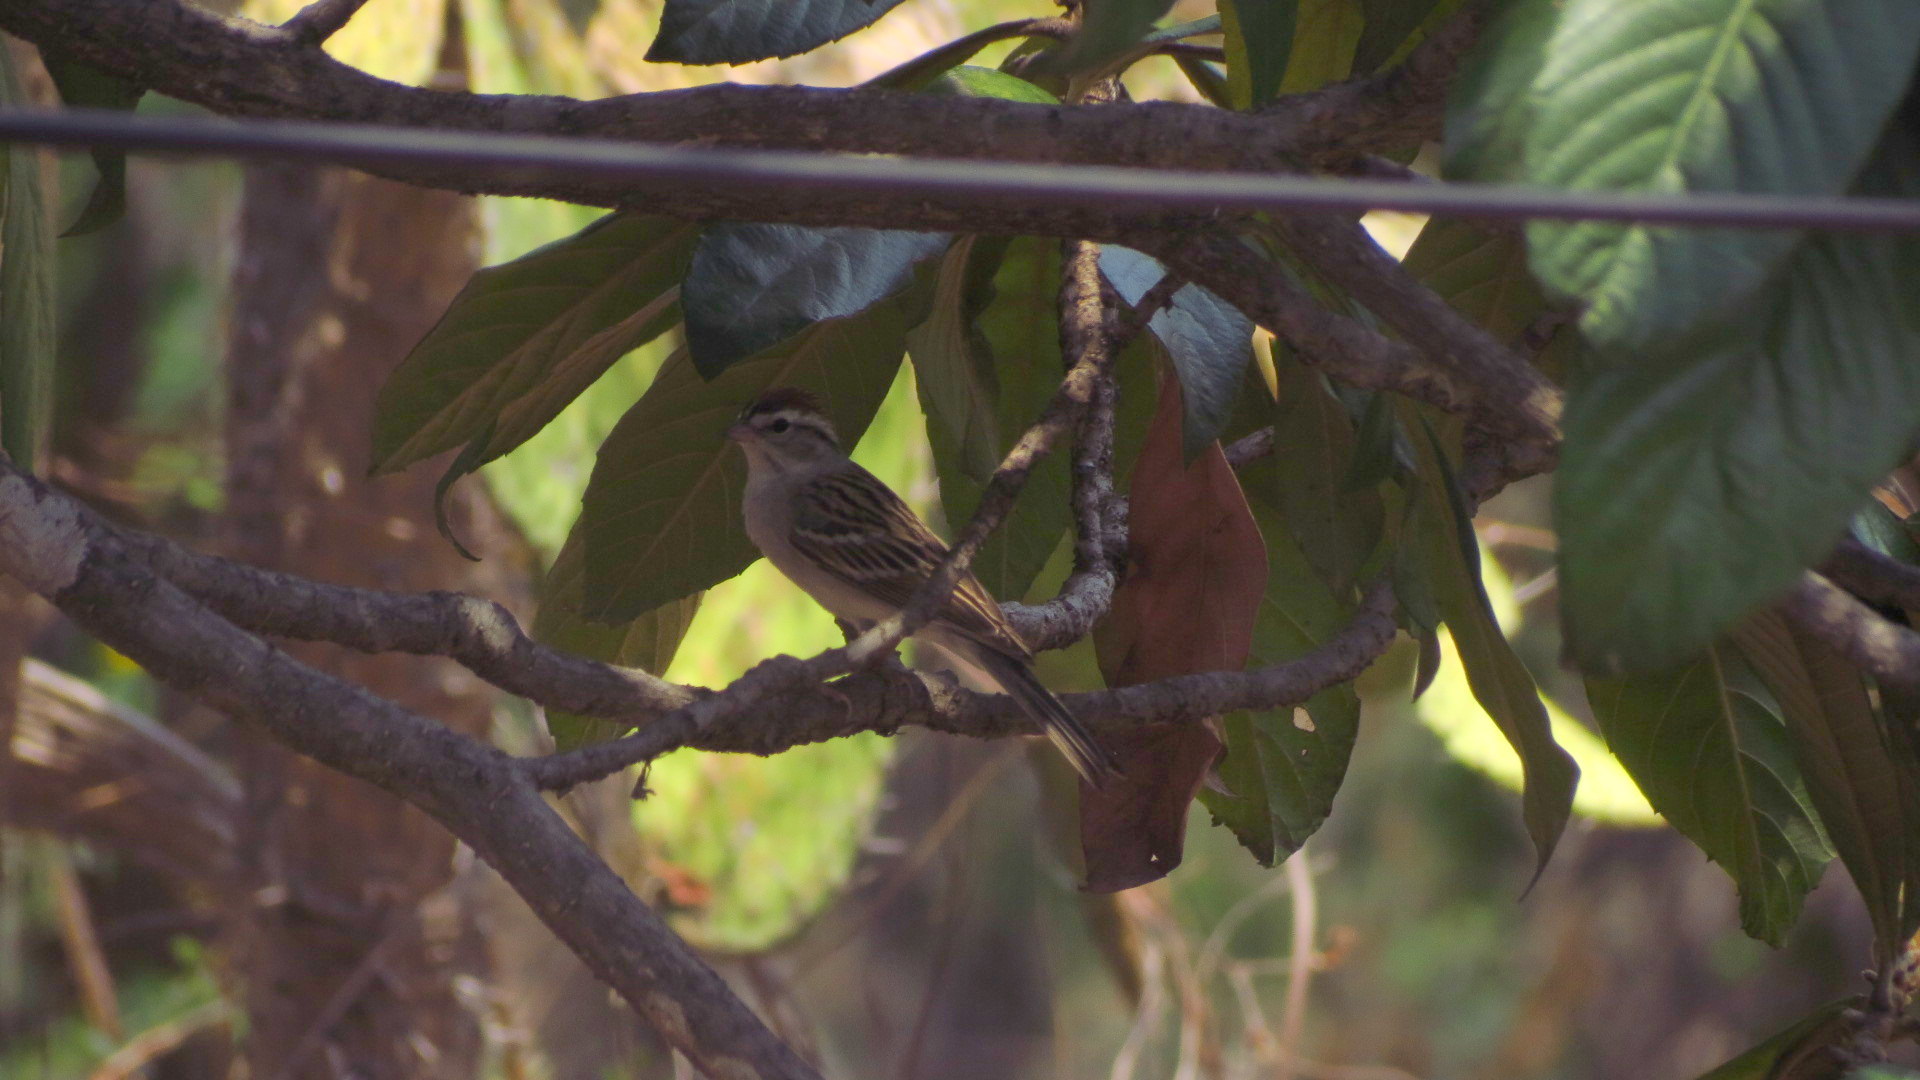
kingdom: Animalia
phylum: Chordata
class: Aves
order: Passeriformes
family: Passerellidae
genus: Spizella
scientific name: Spizella passerina
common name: Chipping sparrow
